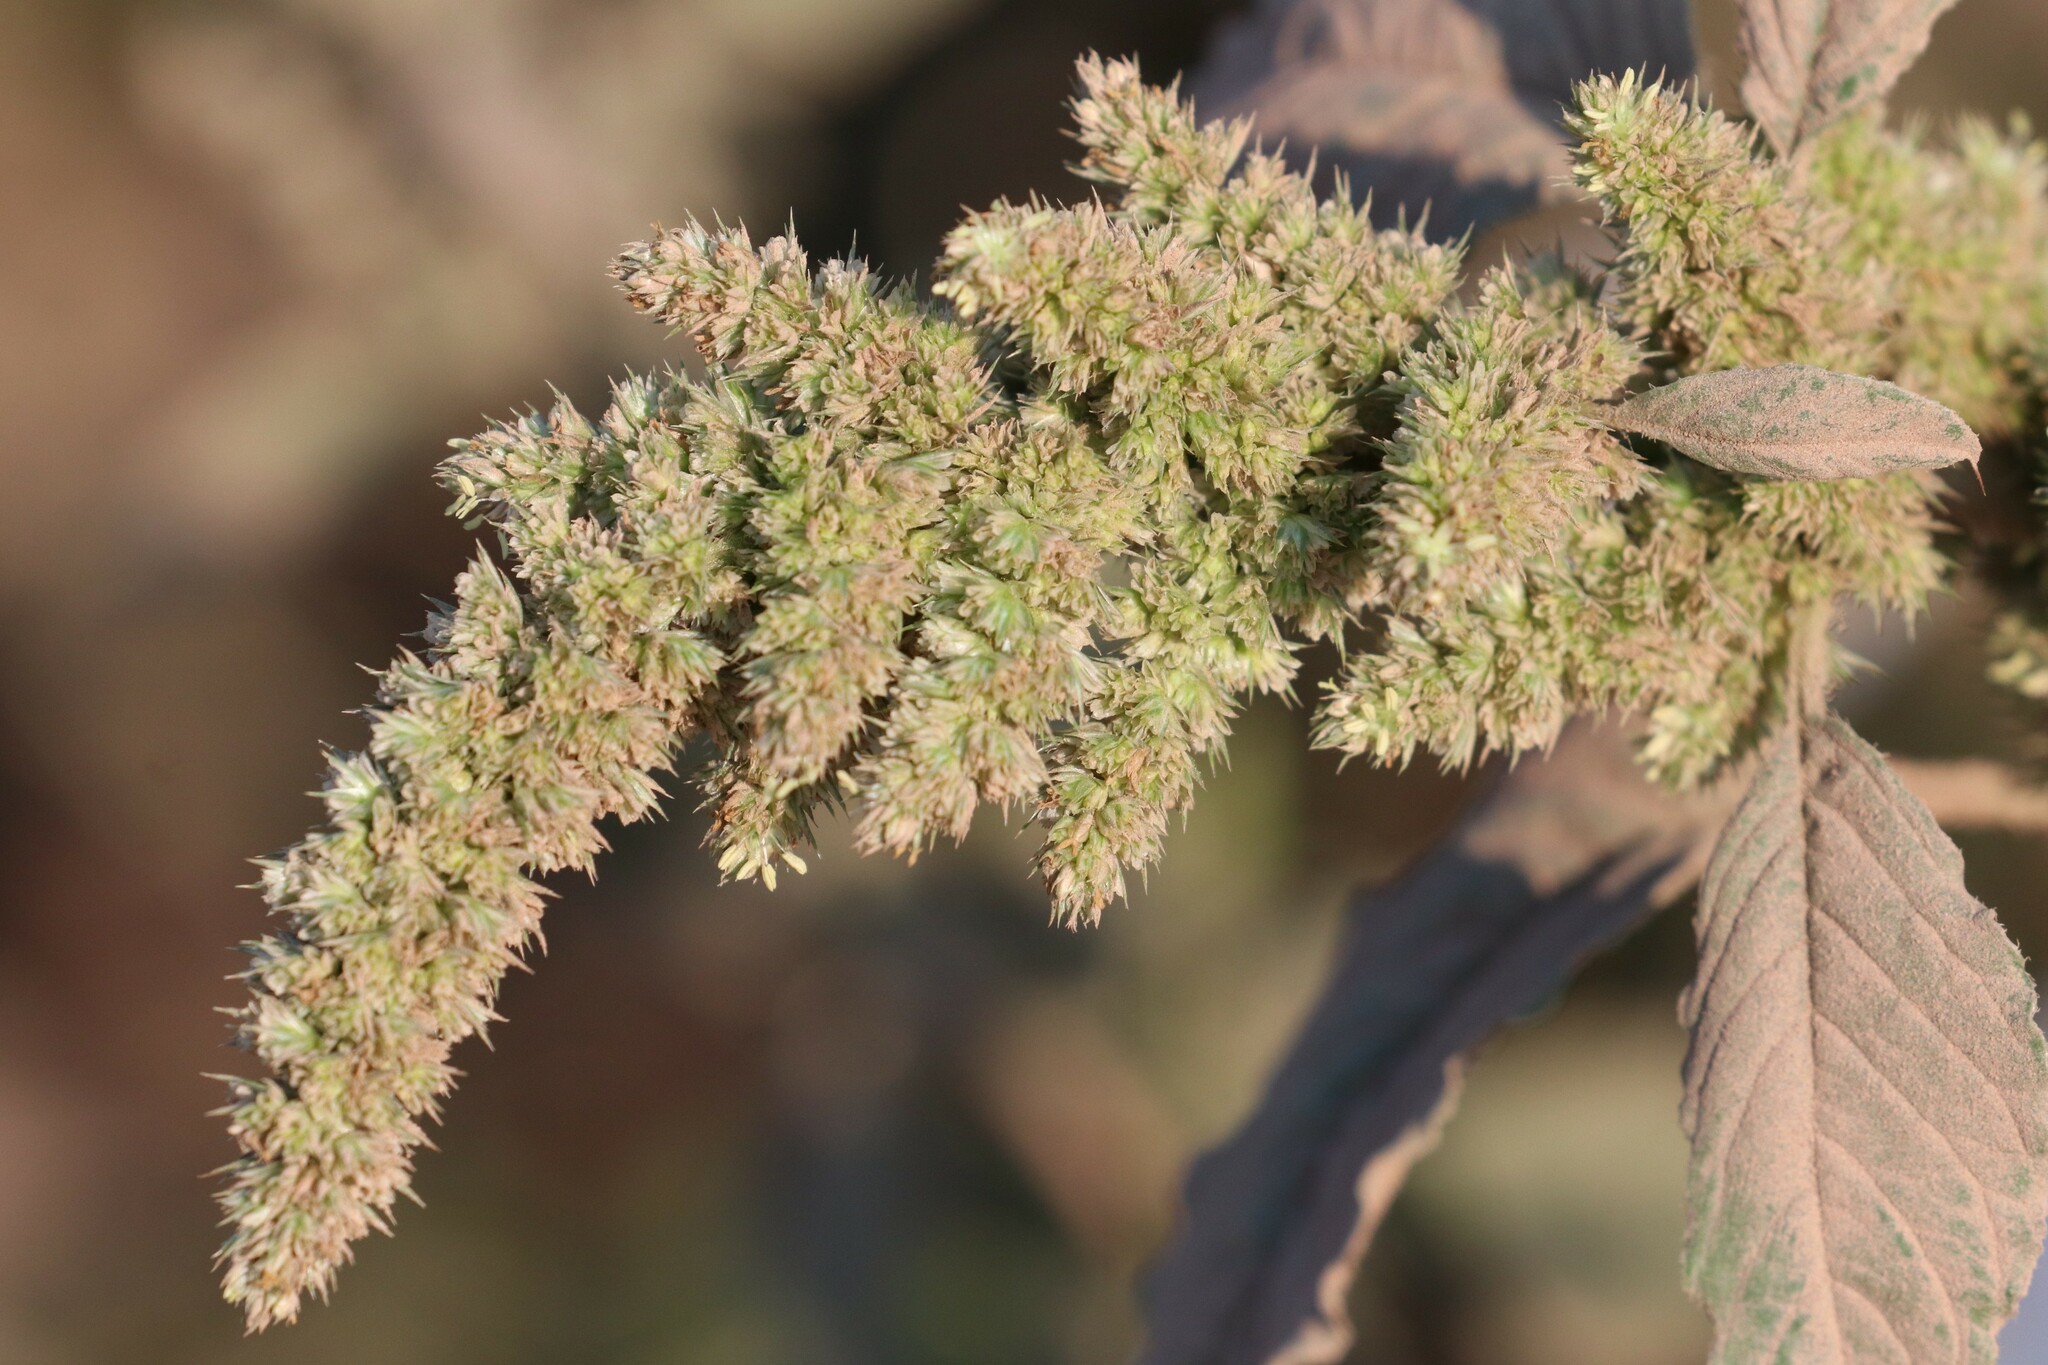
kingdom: Plantae
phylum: Tracheophyta
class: Magnoliopsida
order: Caryophyllales
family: Amaranthaceae
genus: Amaranthus
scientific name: Amaranthus retroflexus
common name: Redroot amaranth
